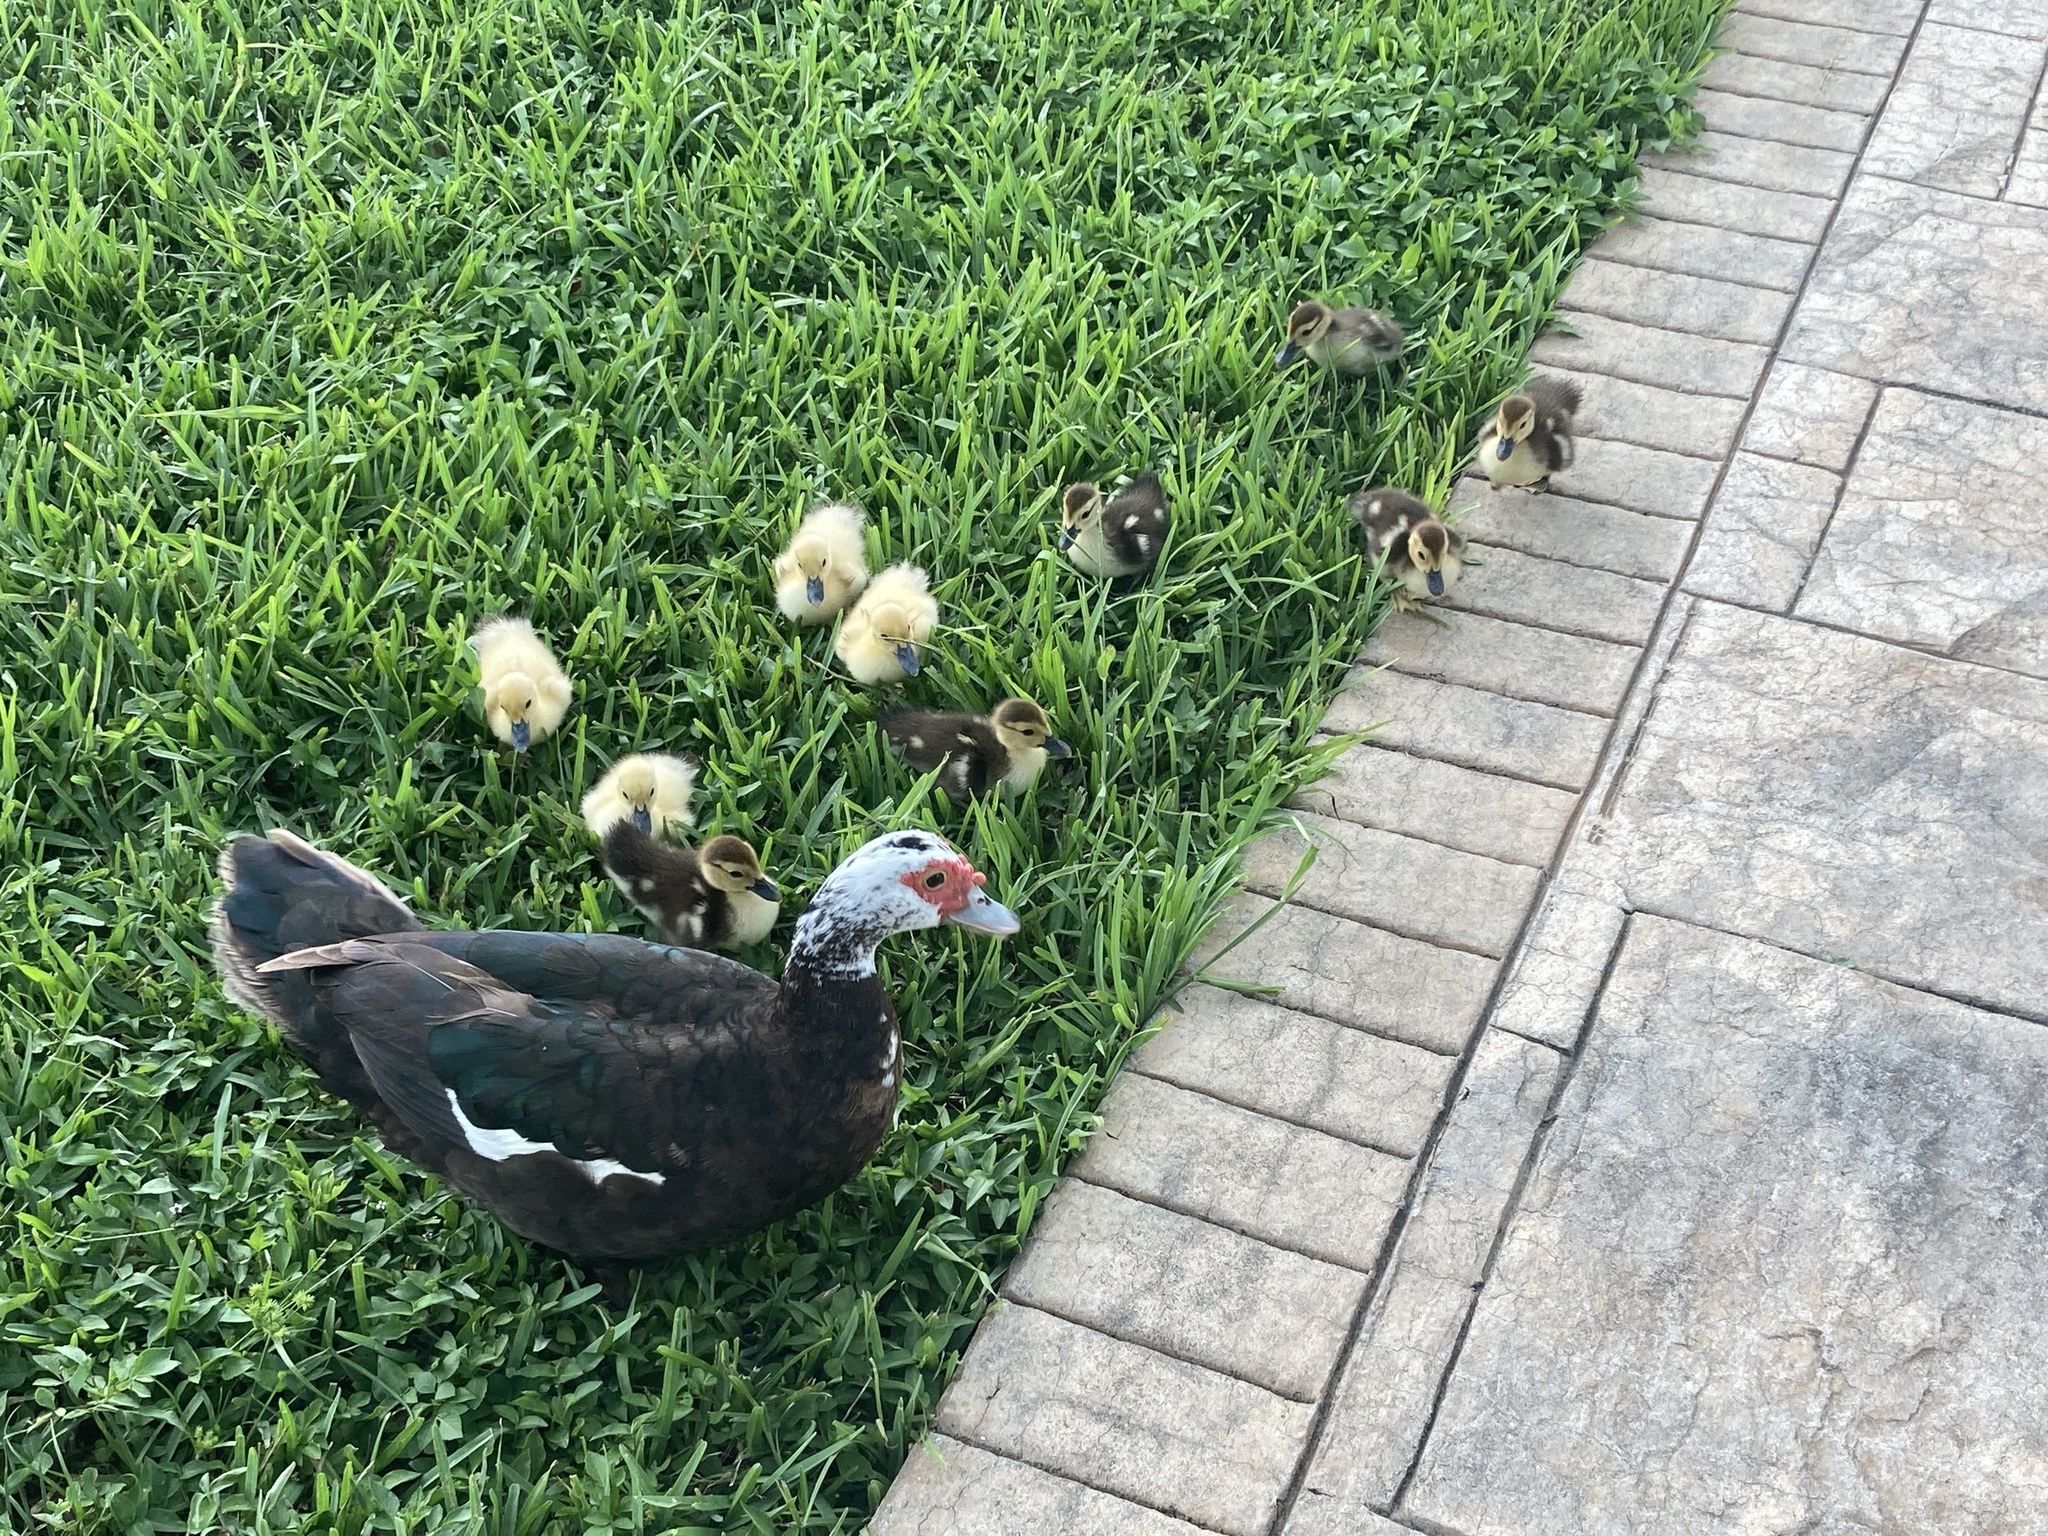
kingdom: Animalia
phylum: Chordata
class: Aves
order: Anseriformes
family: Anatidae
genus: Cairina
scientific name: Cairina moschata
